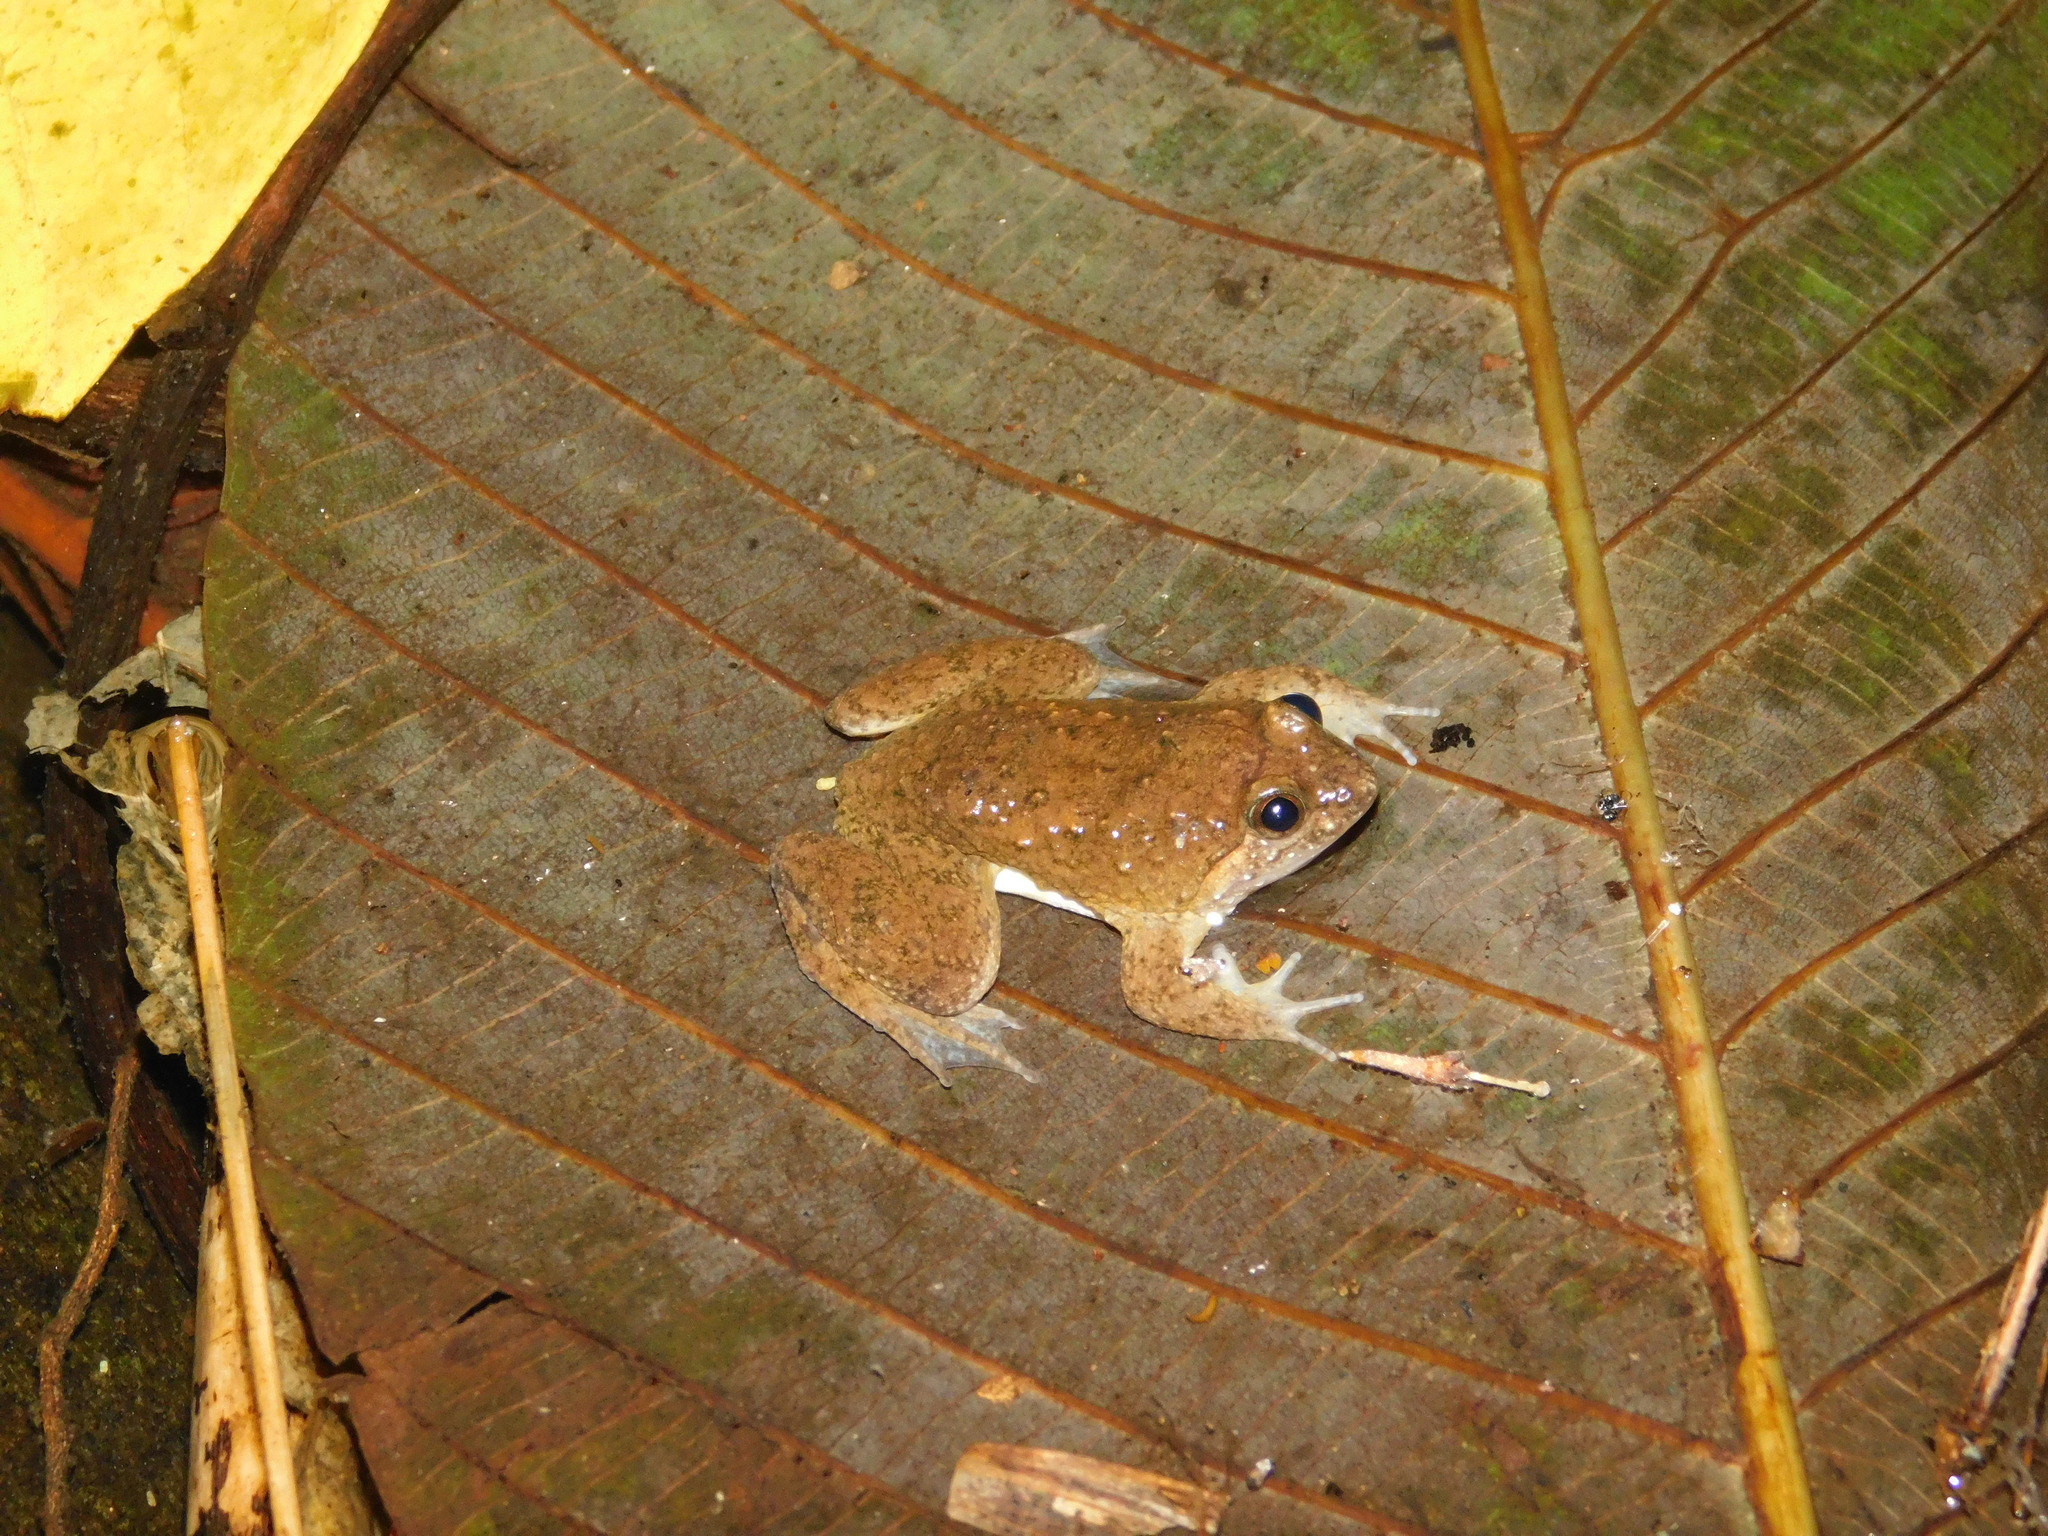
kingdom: Animalia
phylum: Chordata
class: Amphibia
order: Anura
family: Dicroglossidae
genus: Occidozyga
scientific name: Occidozyga sumatrana
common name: Puddle frog
